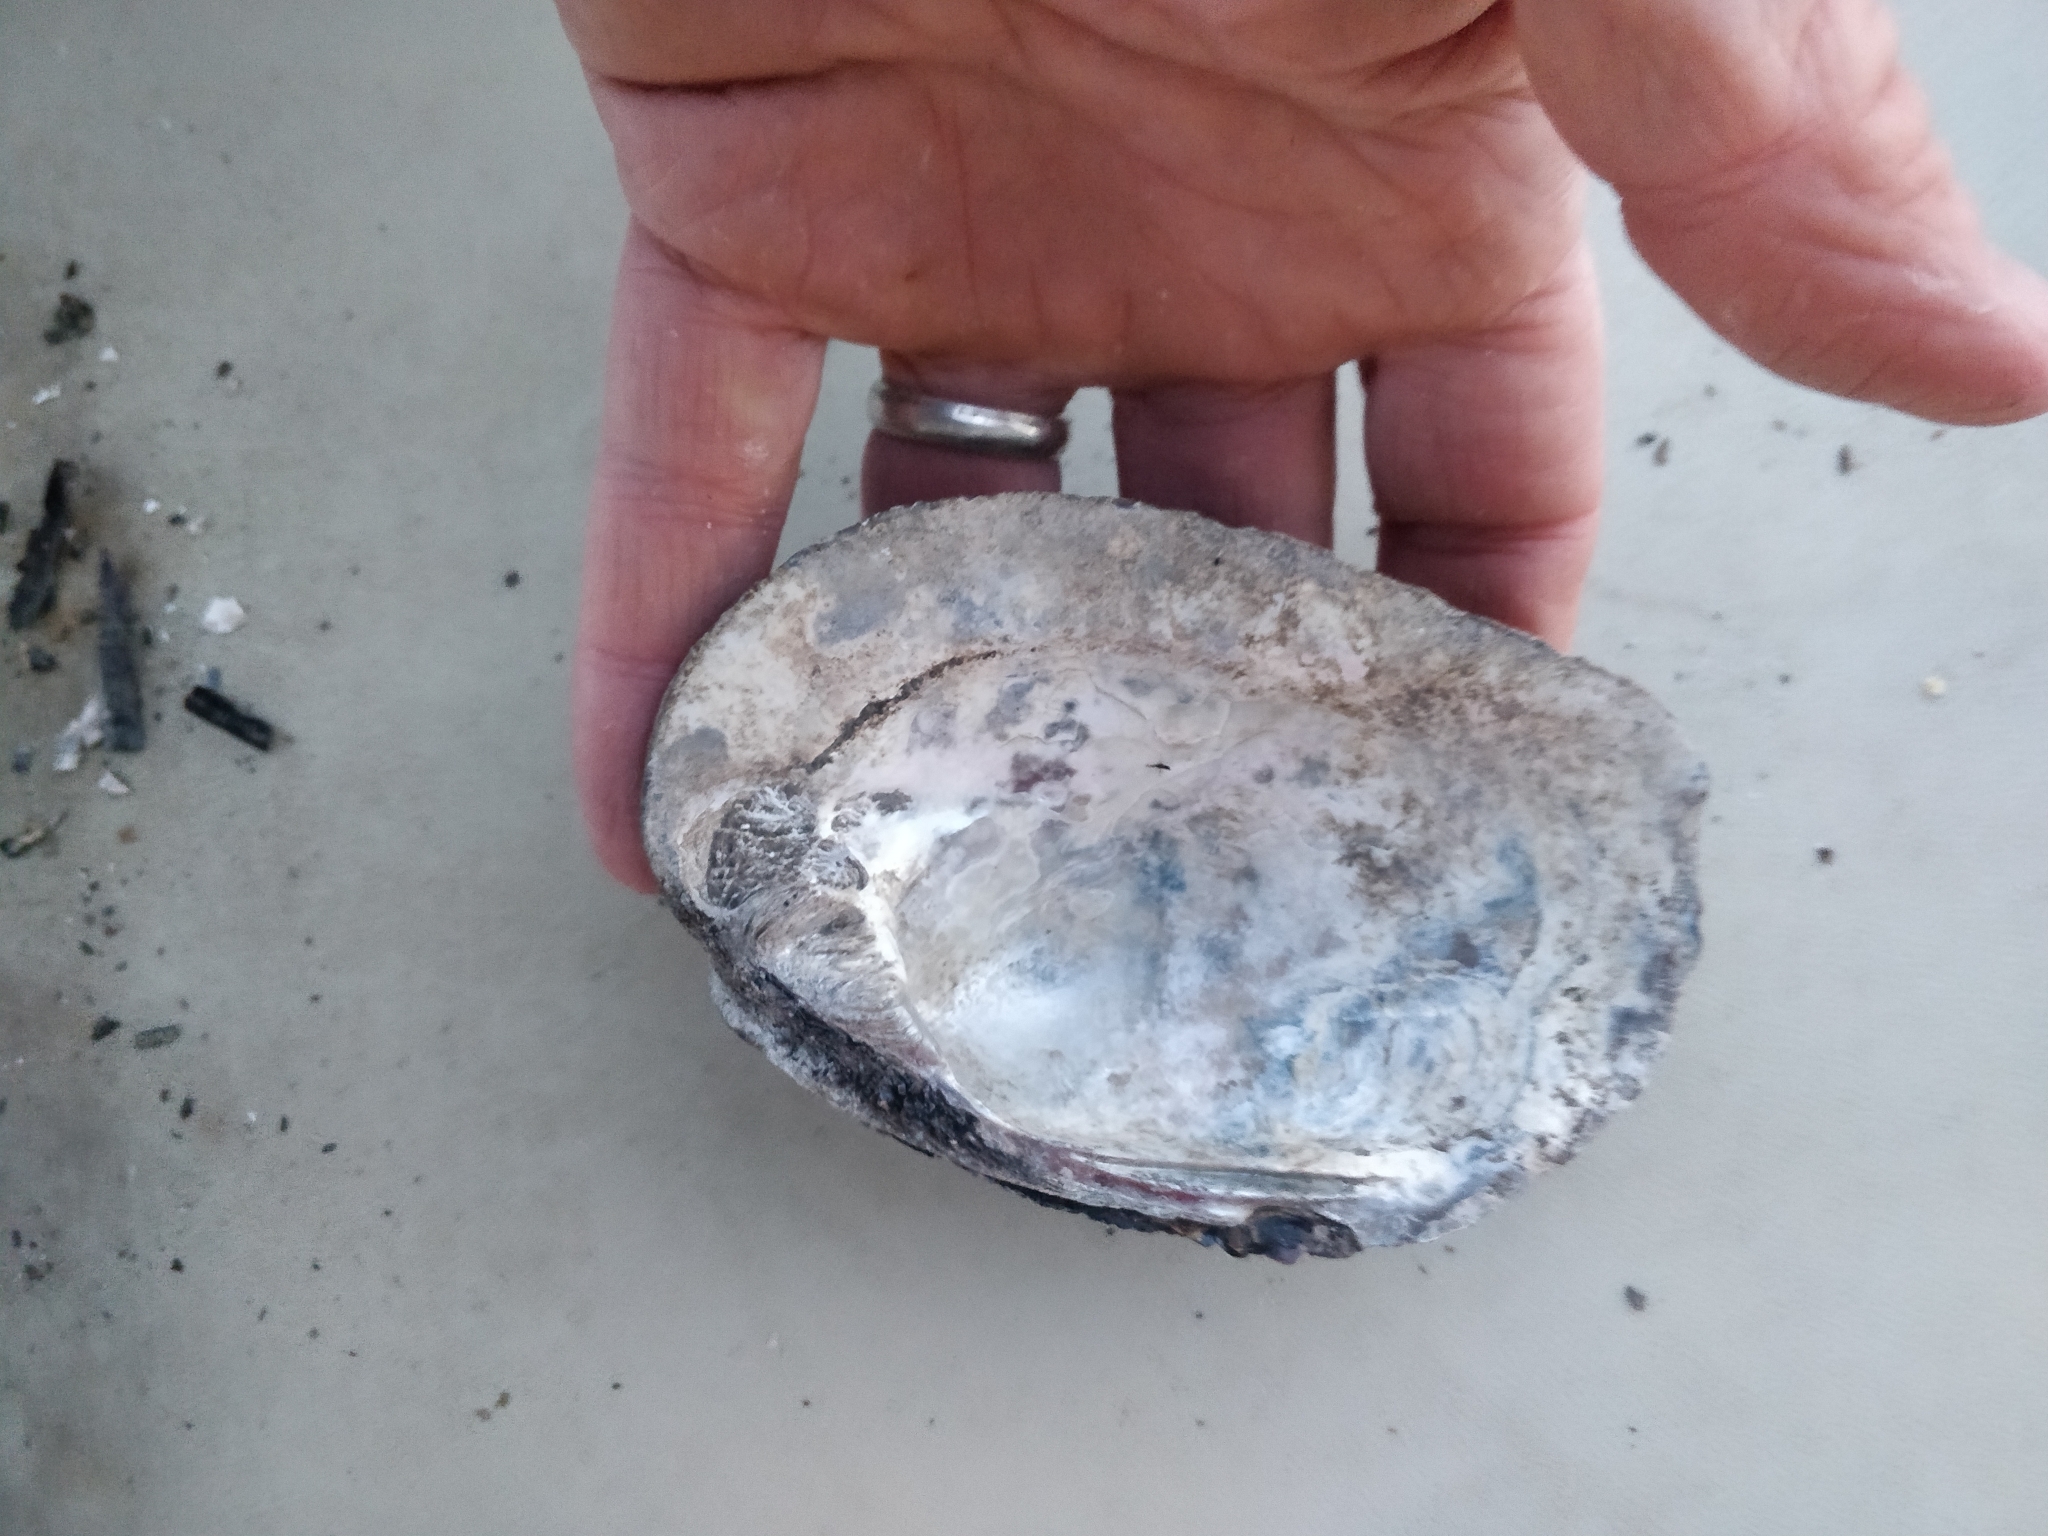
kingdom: Animalia
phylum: Mollusca
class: Bivalvia
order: Unionida
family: Unionidae
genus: Amblema
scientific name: Amblema plicata
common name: Threeridge
